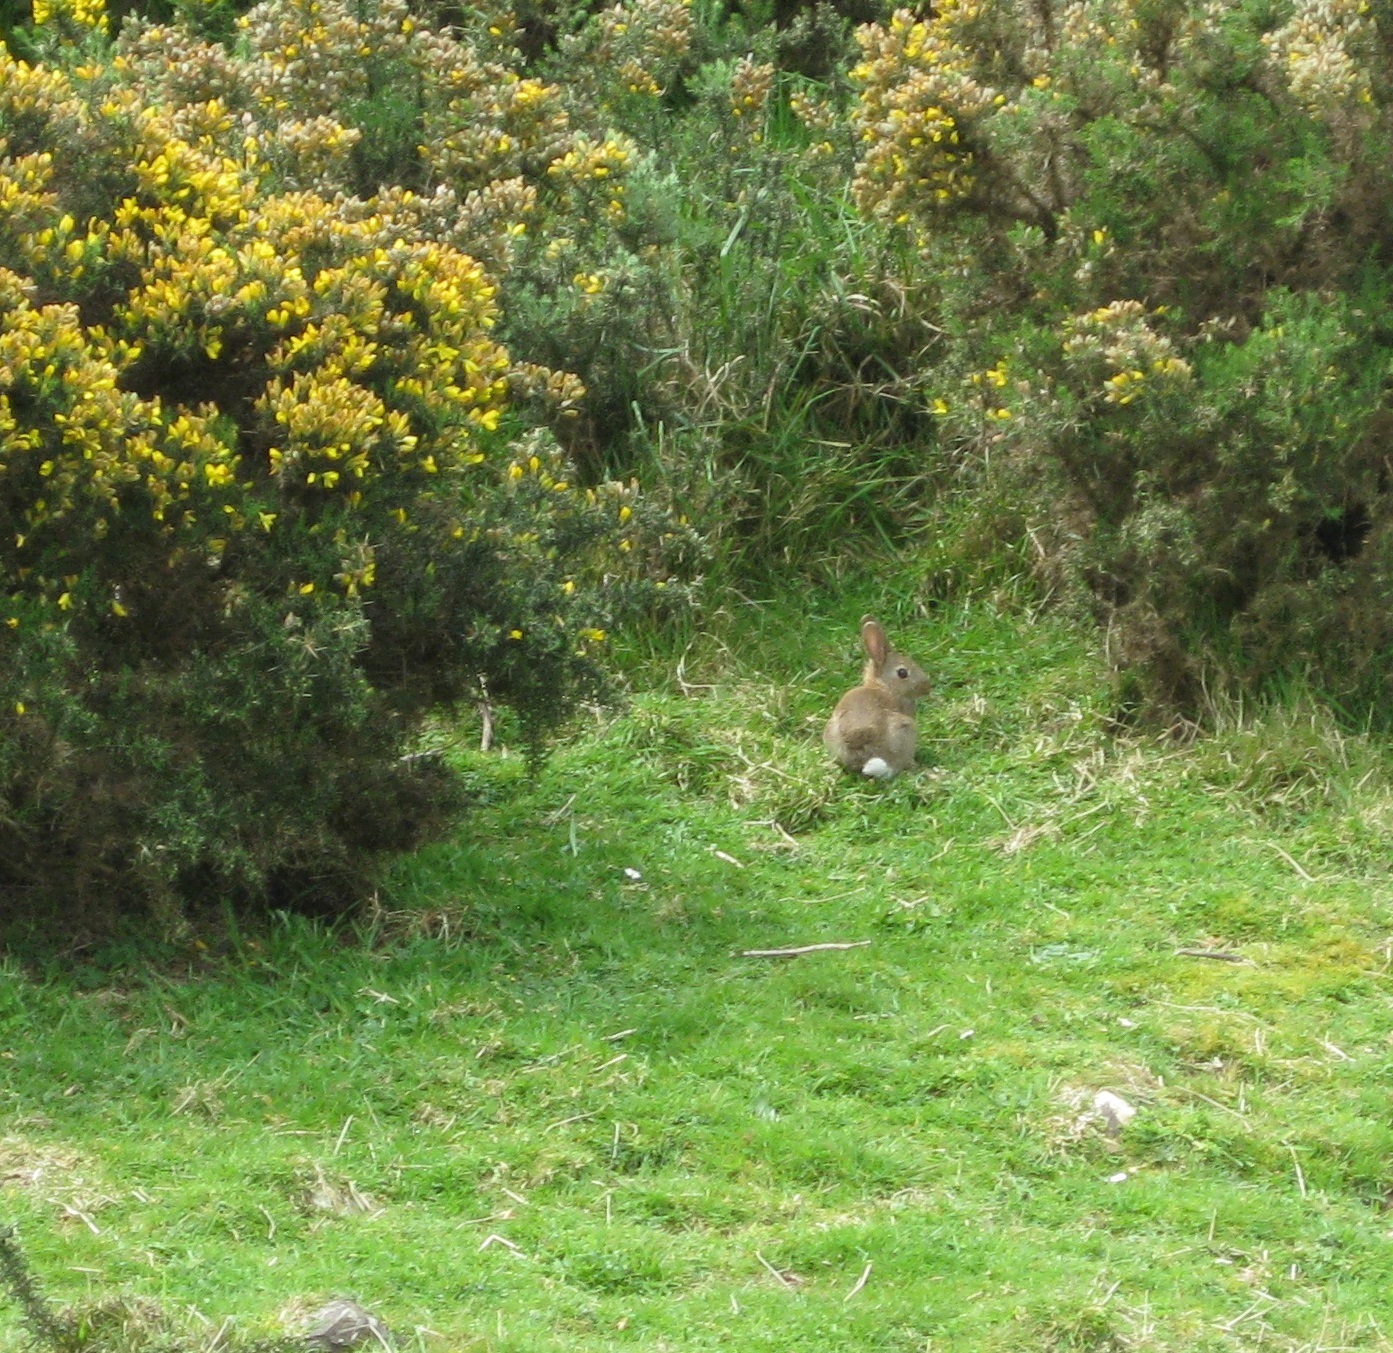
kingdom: Animalia
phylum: Chordata
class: Mammalia
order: Lagomorpha
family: Leporidae
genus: Oryctolagus
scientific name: Oryctolagus cuniculus
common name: European rabbit
